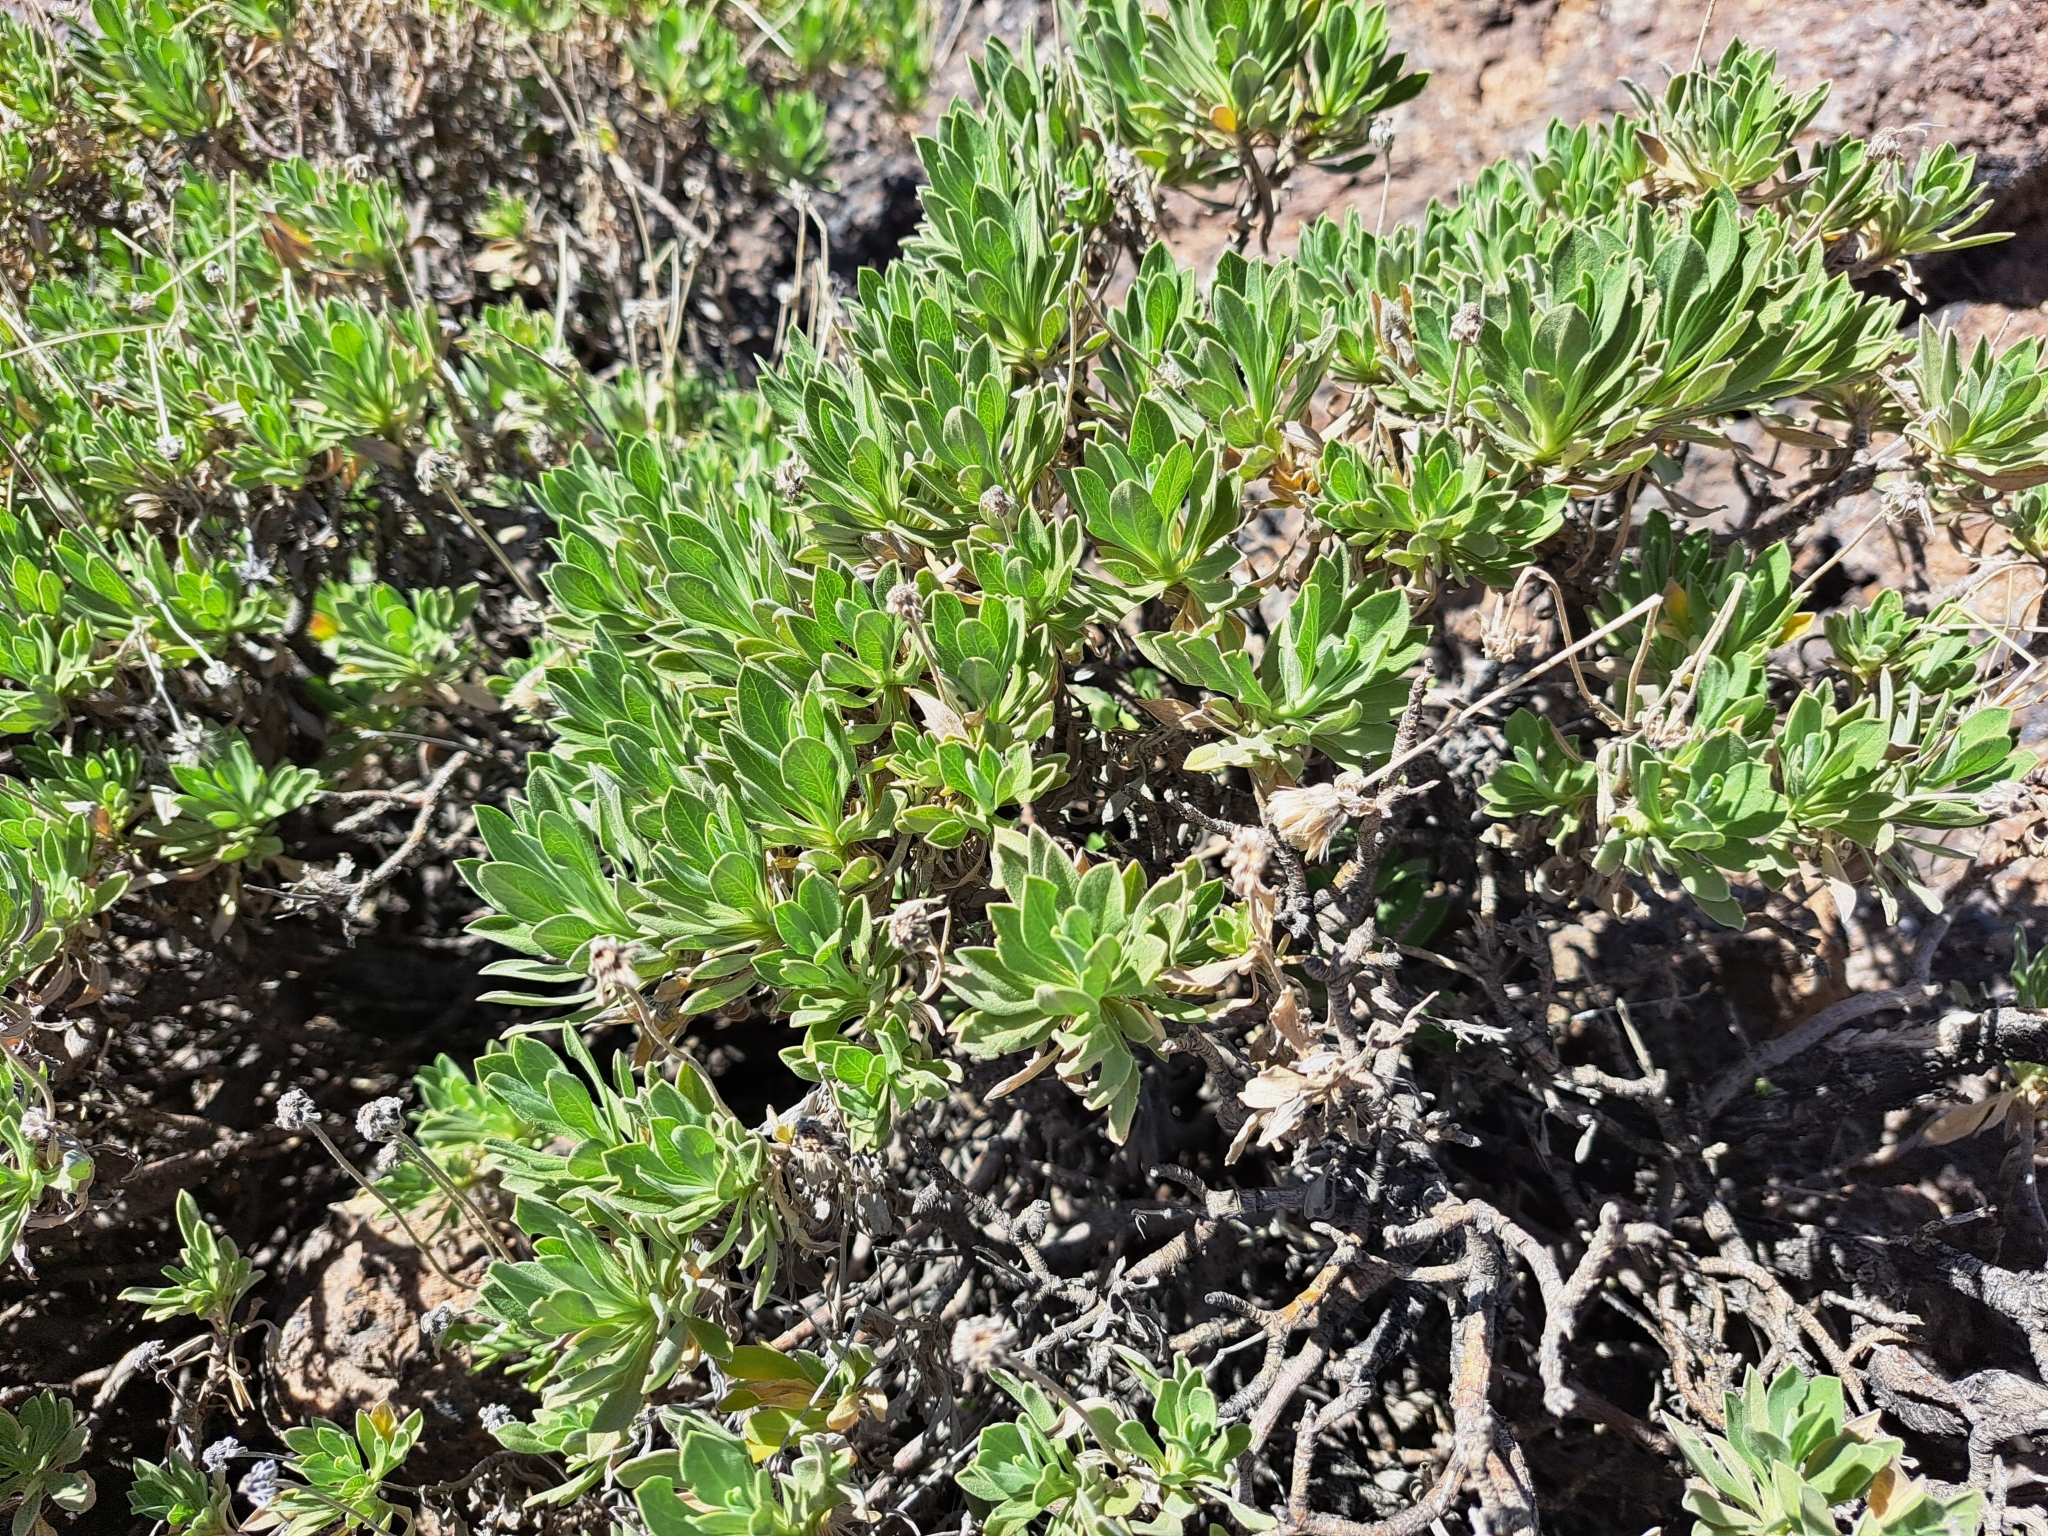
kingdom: Plantae
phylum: Tracheophyta
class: Magnoliopsida
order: Dipsacales
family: Caprifoliaceae
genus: Pterocephalus
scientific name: Pterocephalus lasiospermus
